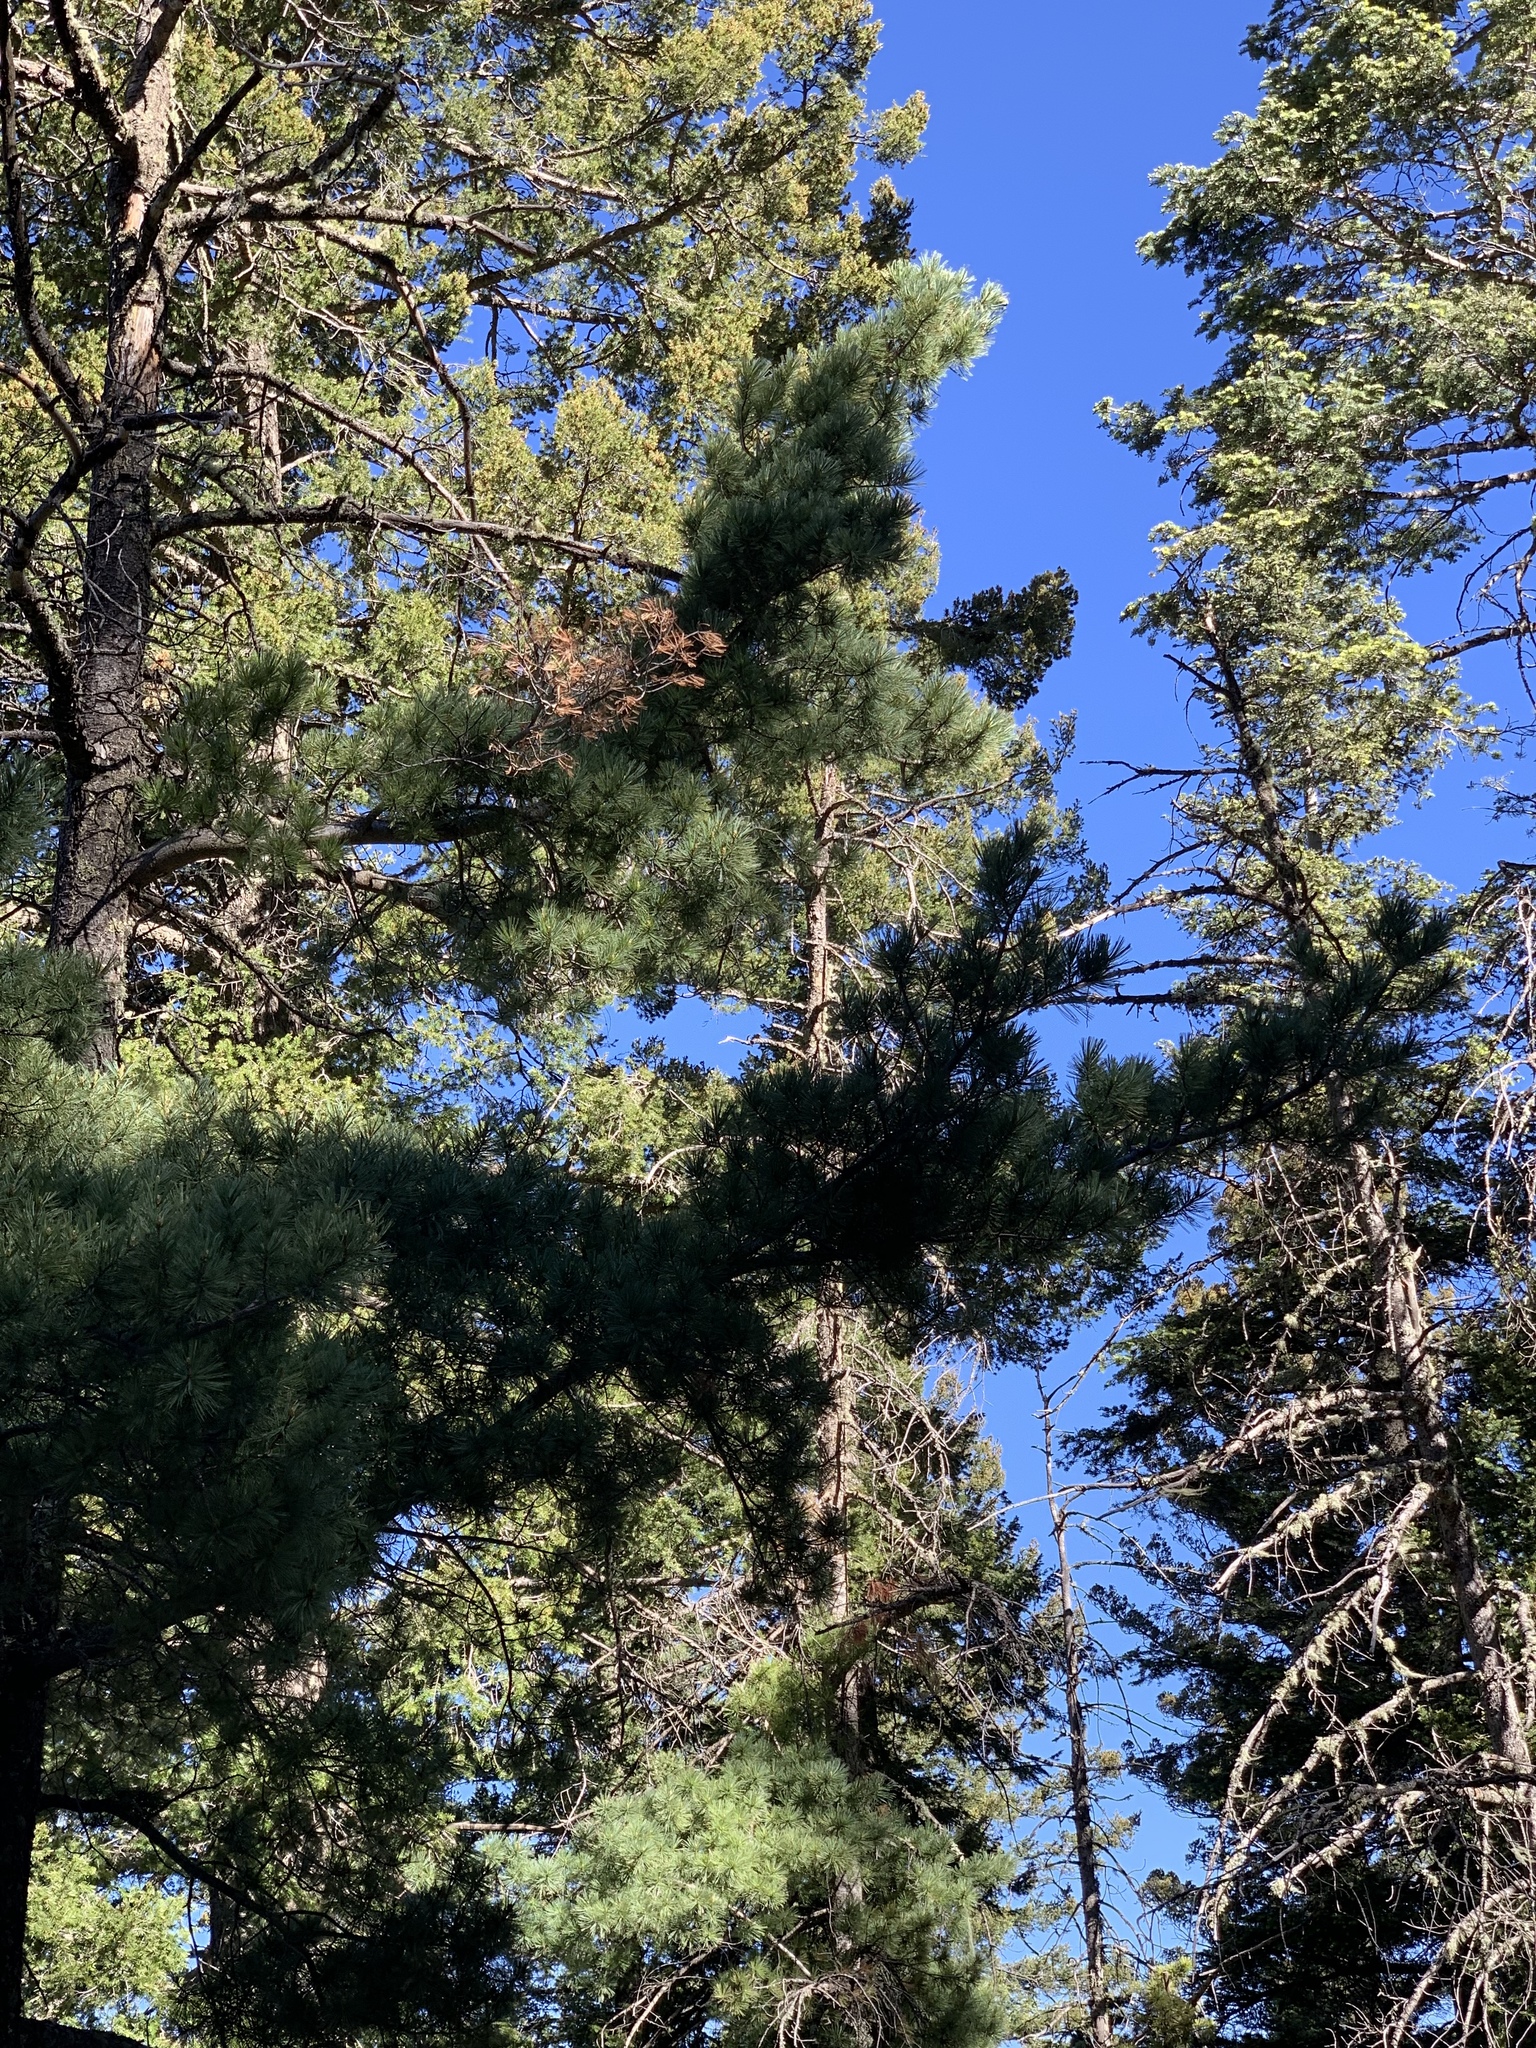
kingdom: Plantae
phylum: Tracheophyta
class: Pinopsida
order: Pinales
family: Pinaceae
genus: Pinus
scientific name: Pinus strobiformis
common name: Southwestern white pine
